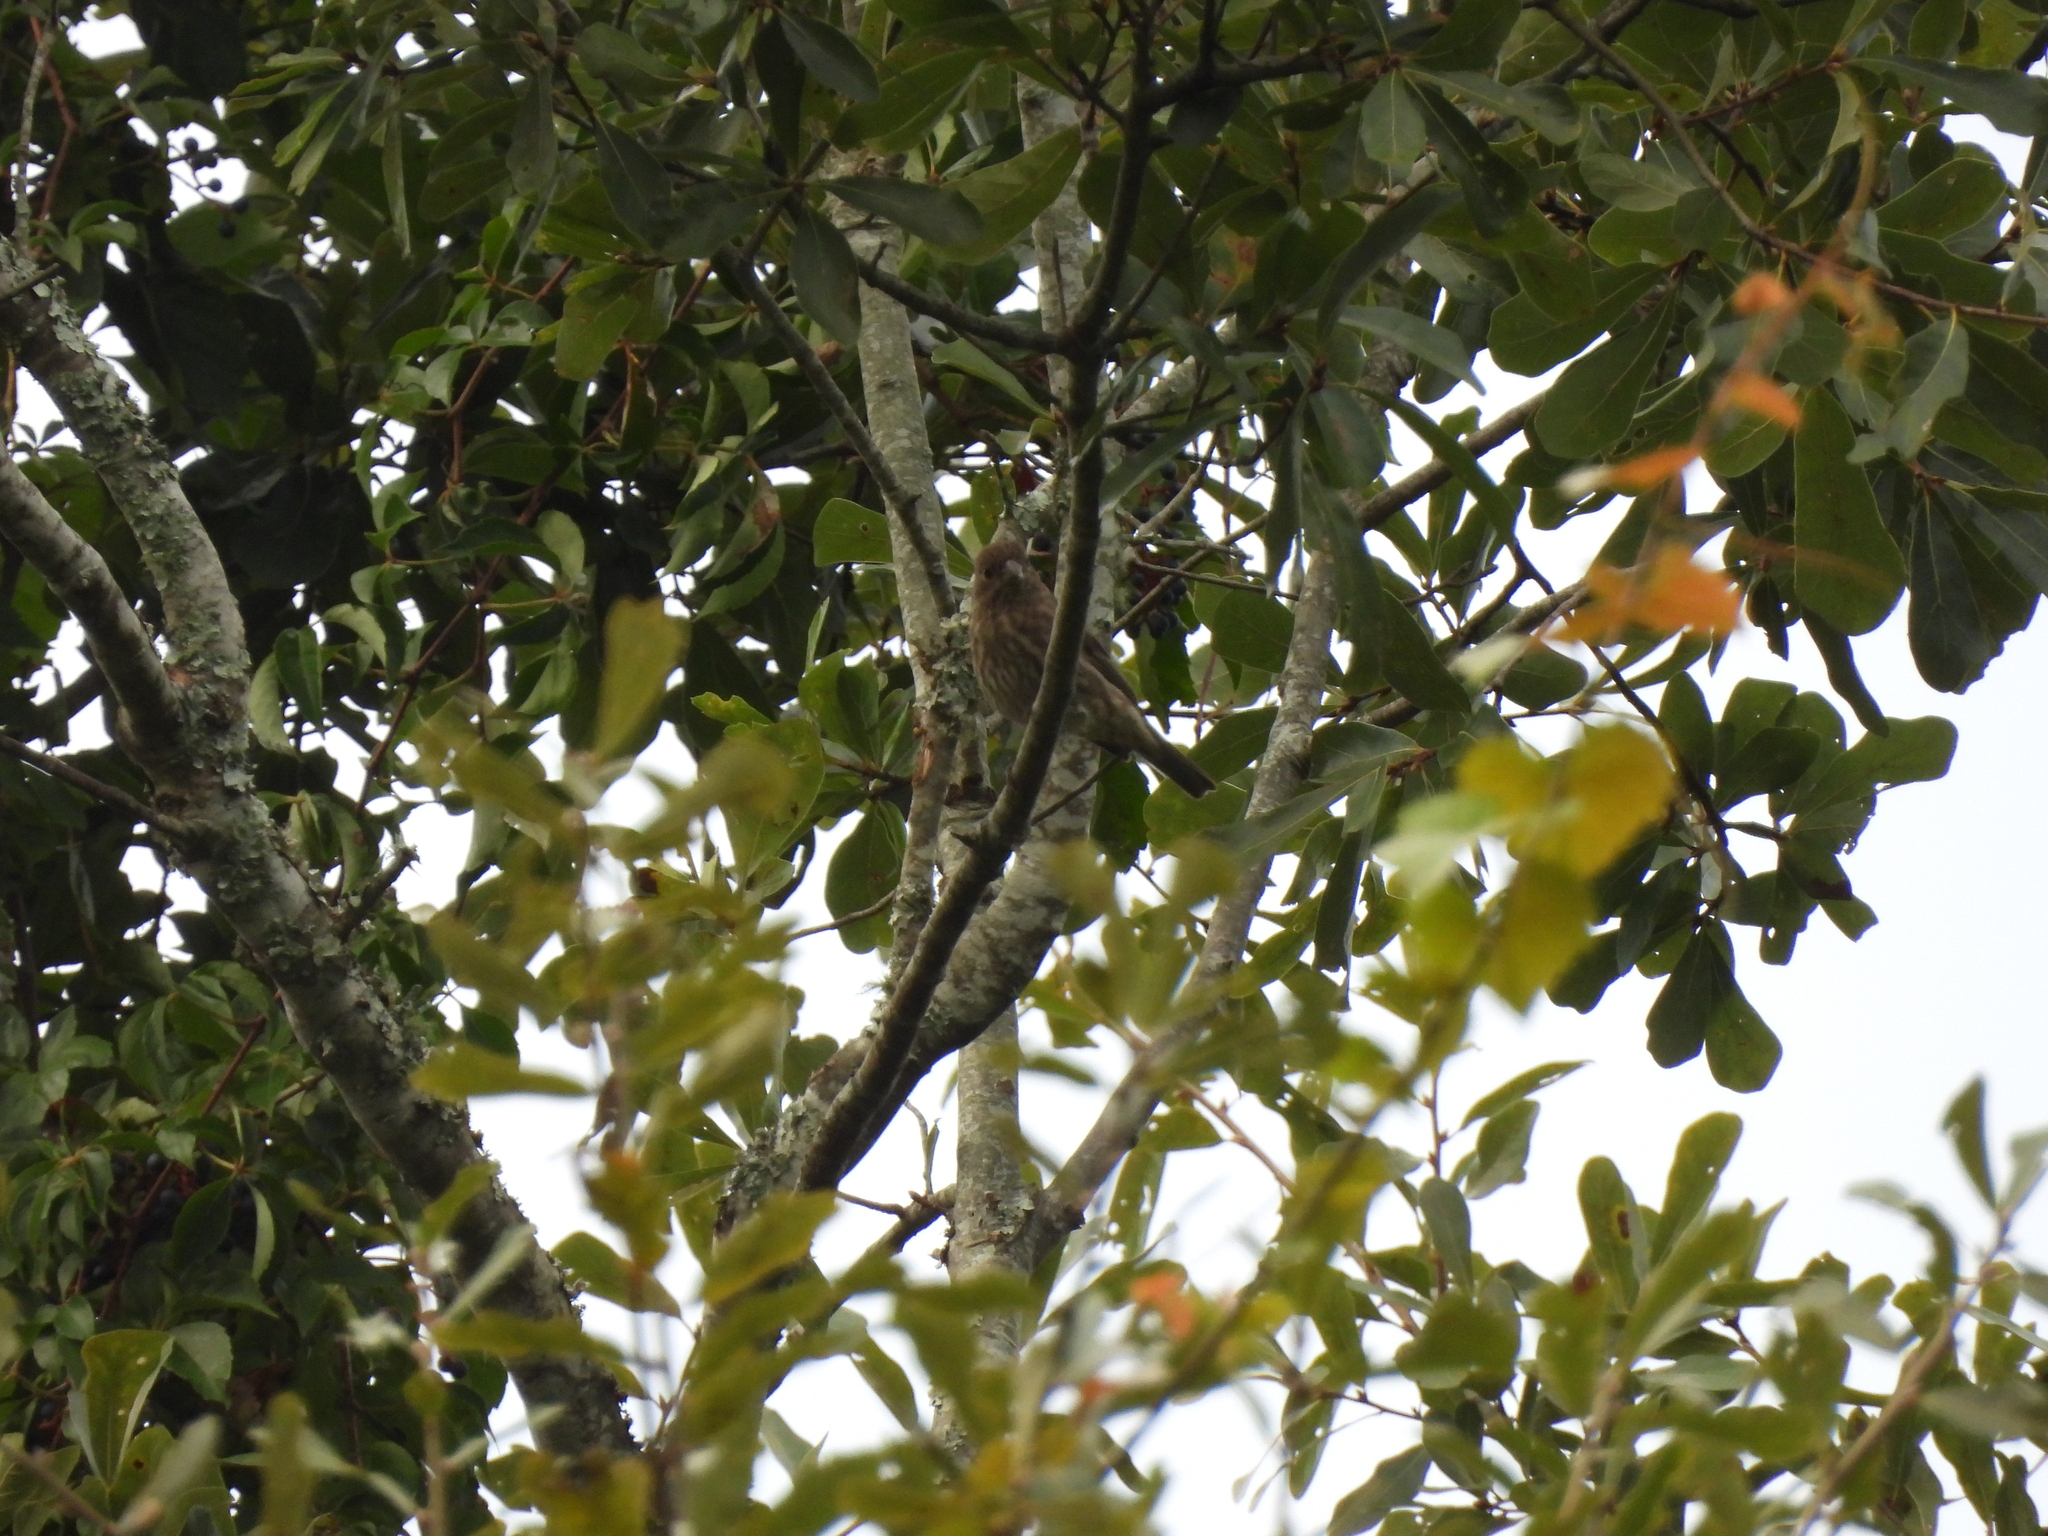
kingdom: Animalia
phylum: Chordata
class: Aves
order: Passeriformes
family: Fringillidae
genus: Haemorhous
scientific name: Haemorhous mexicanus
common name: House finch
